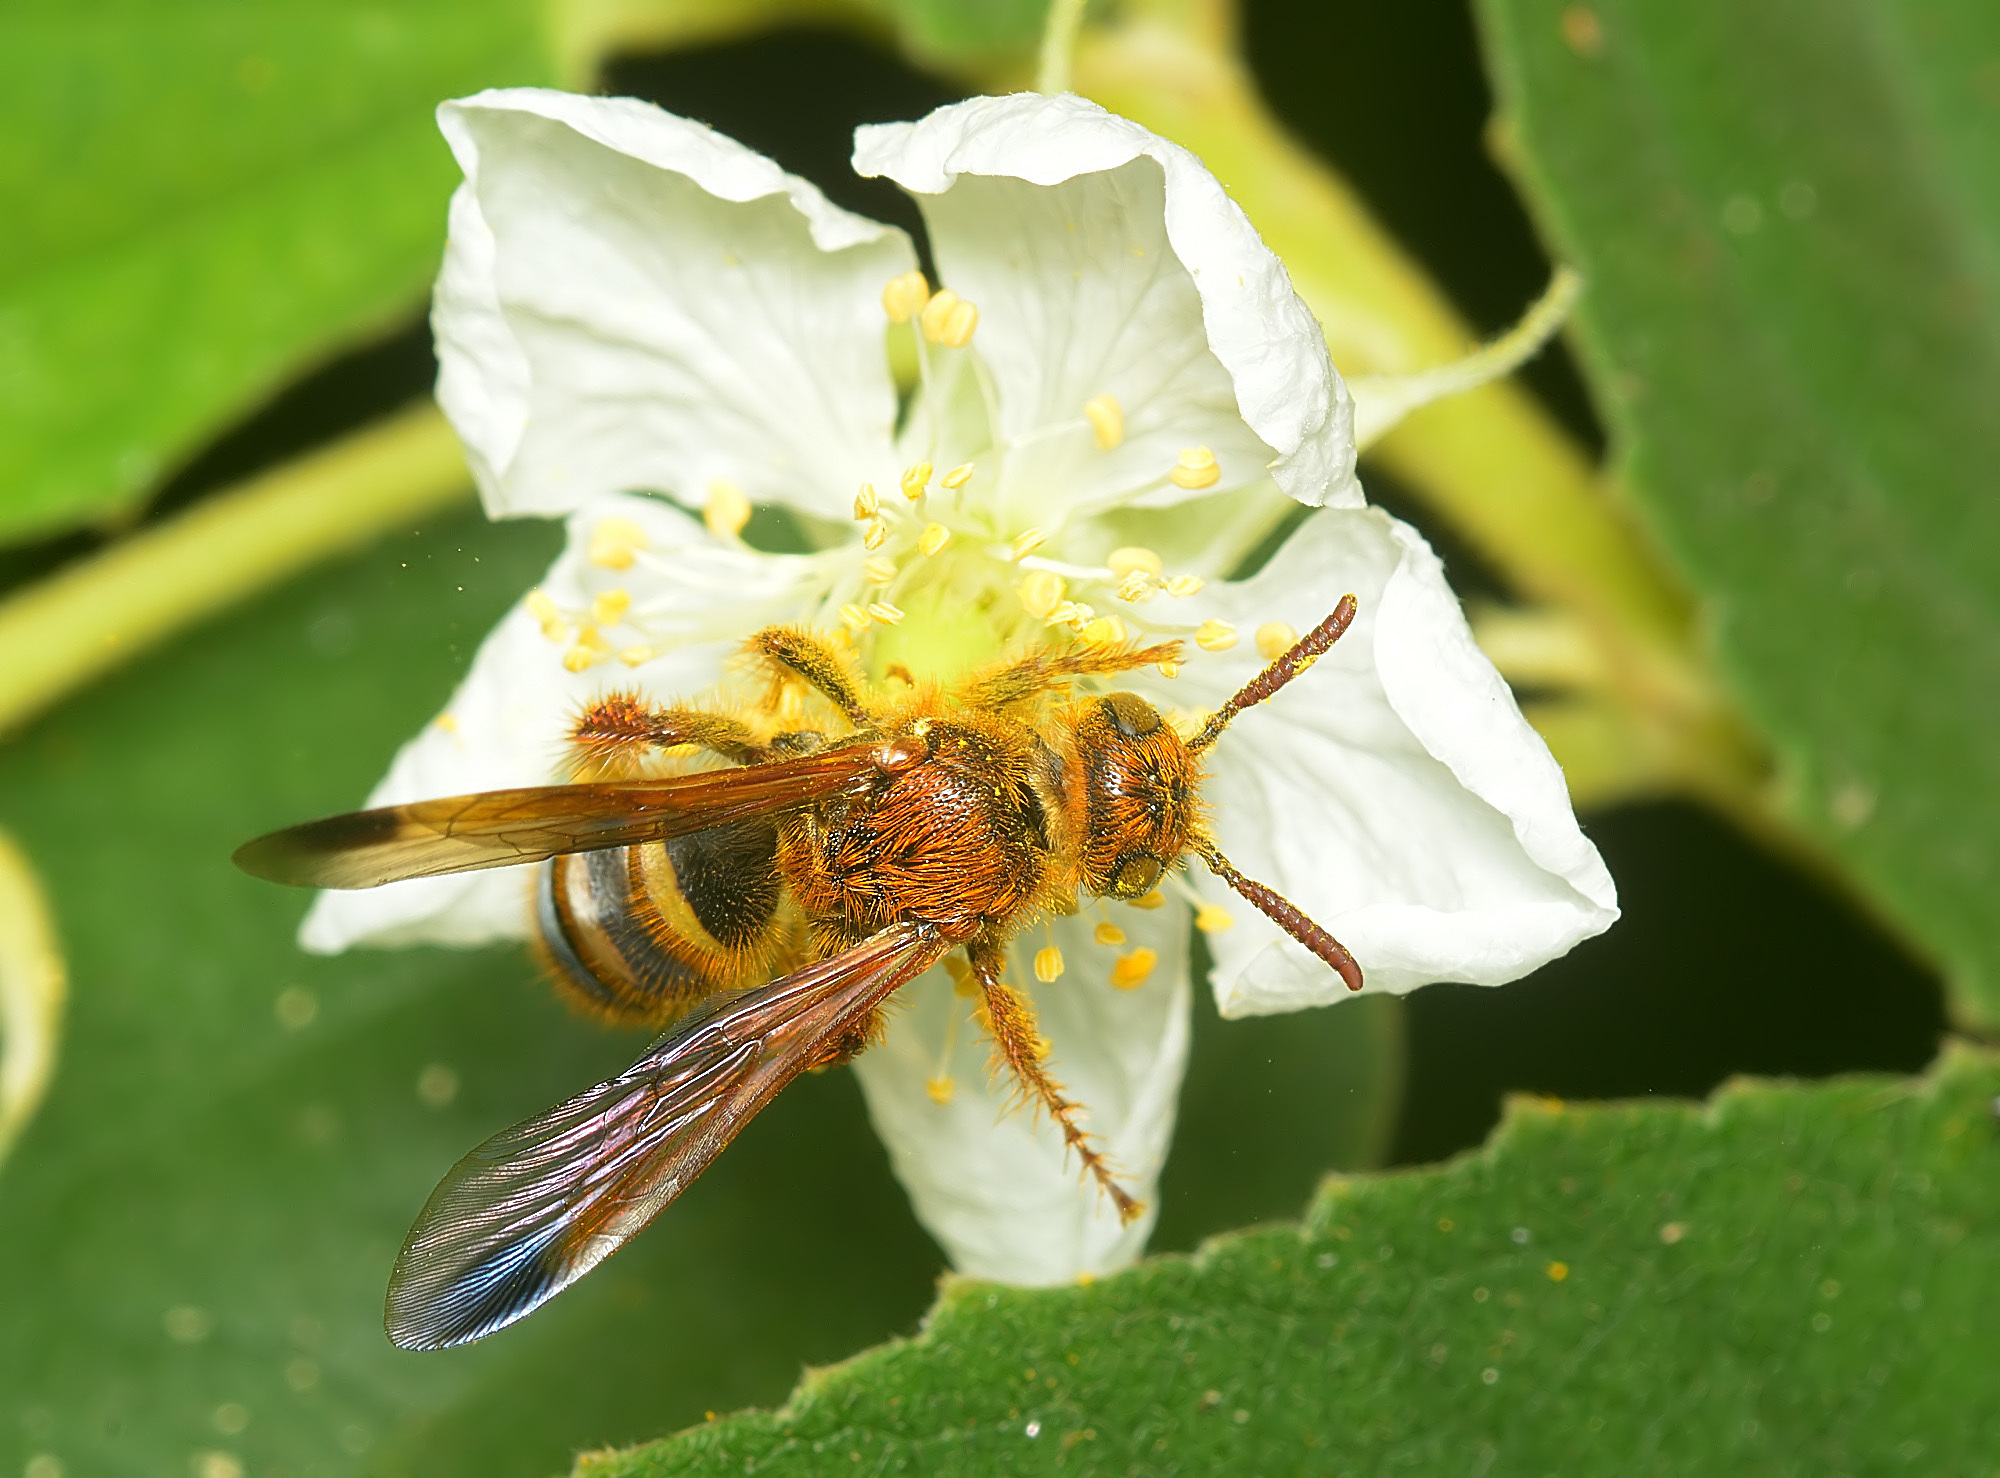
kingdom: Animalia
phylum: Arthropoda
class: Insecta
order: Hymenoptera
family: Scoliidae
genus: Campsomeris
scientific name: Campsomeris phalerata
